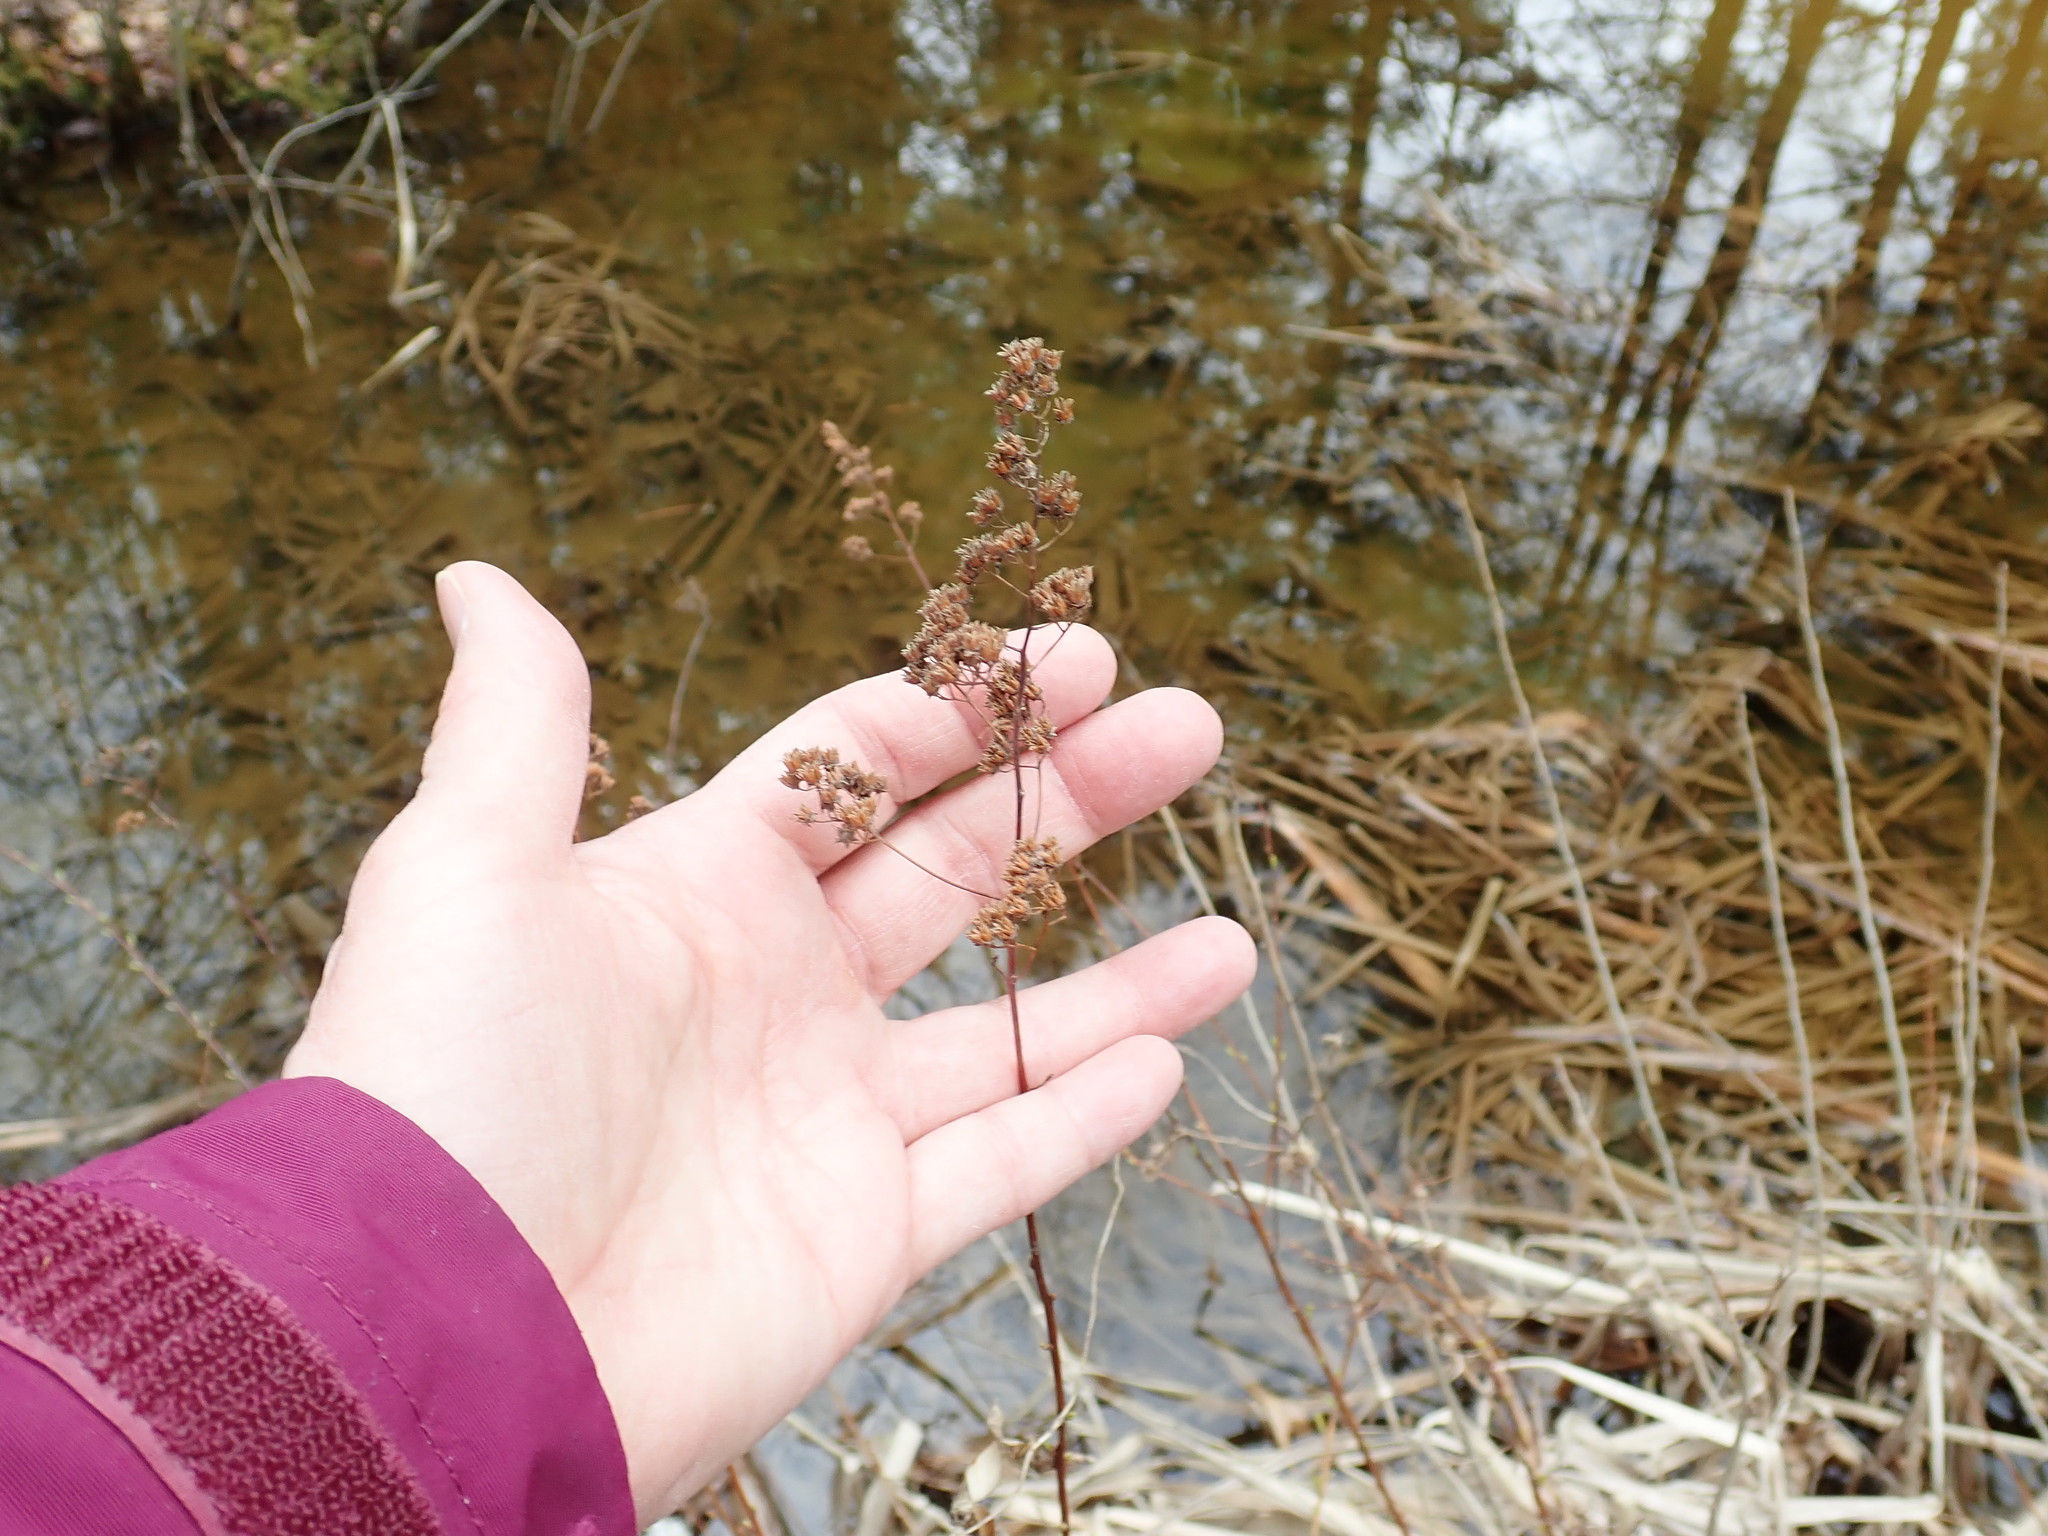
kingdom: Plantae
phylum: Tracheophyta
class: Magnoliopsida
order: Rosales
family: Rosaceae
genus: Spiraea
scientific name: Spiraea alba
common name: Pale bridewort
